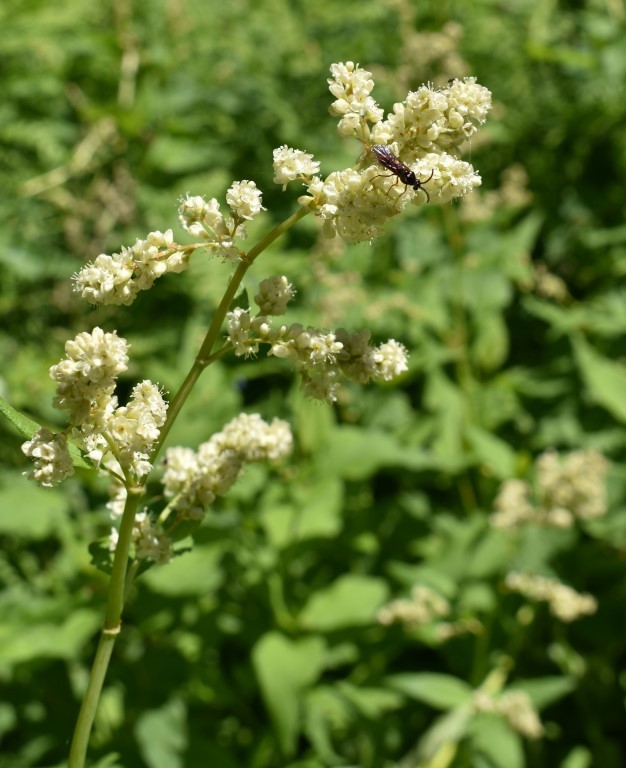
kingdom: Plantae
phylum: Tracheophyta
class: Magnoliopsida
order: Caryophyllales
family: Polygonaceae
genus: Koenigia
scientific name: Koenigia phytolaccifolia
